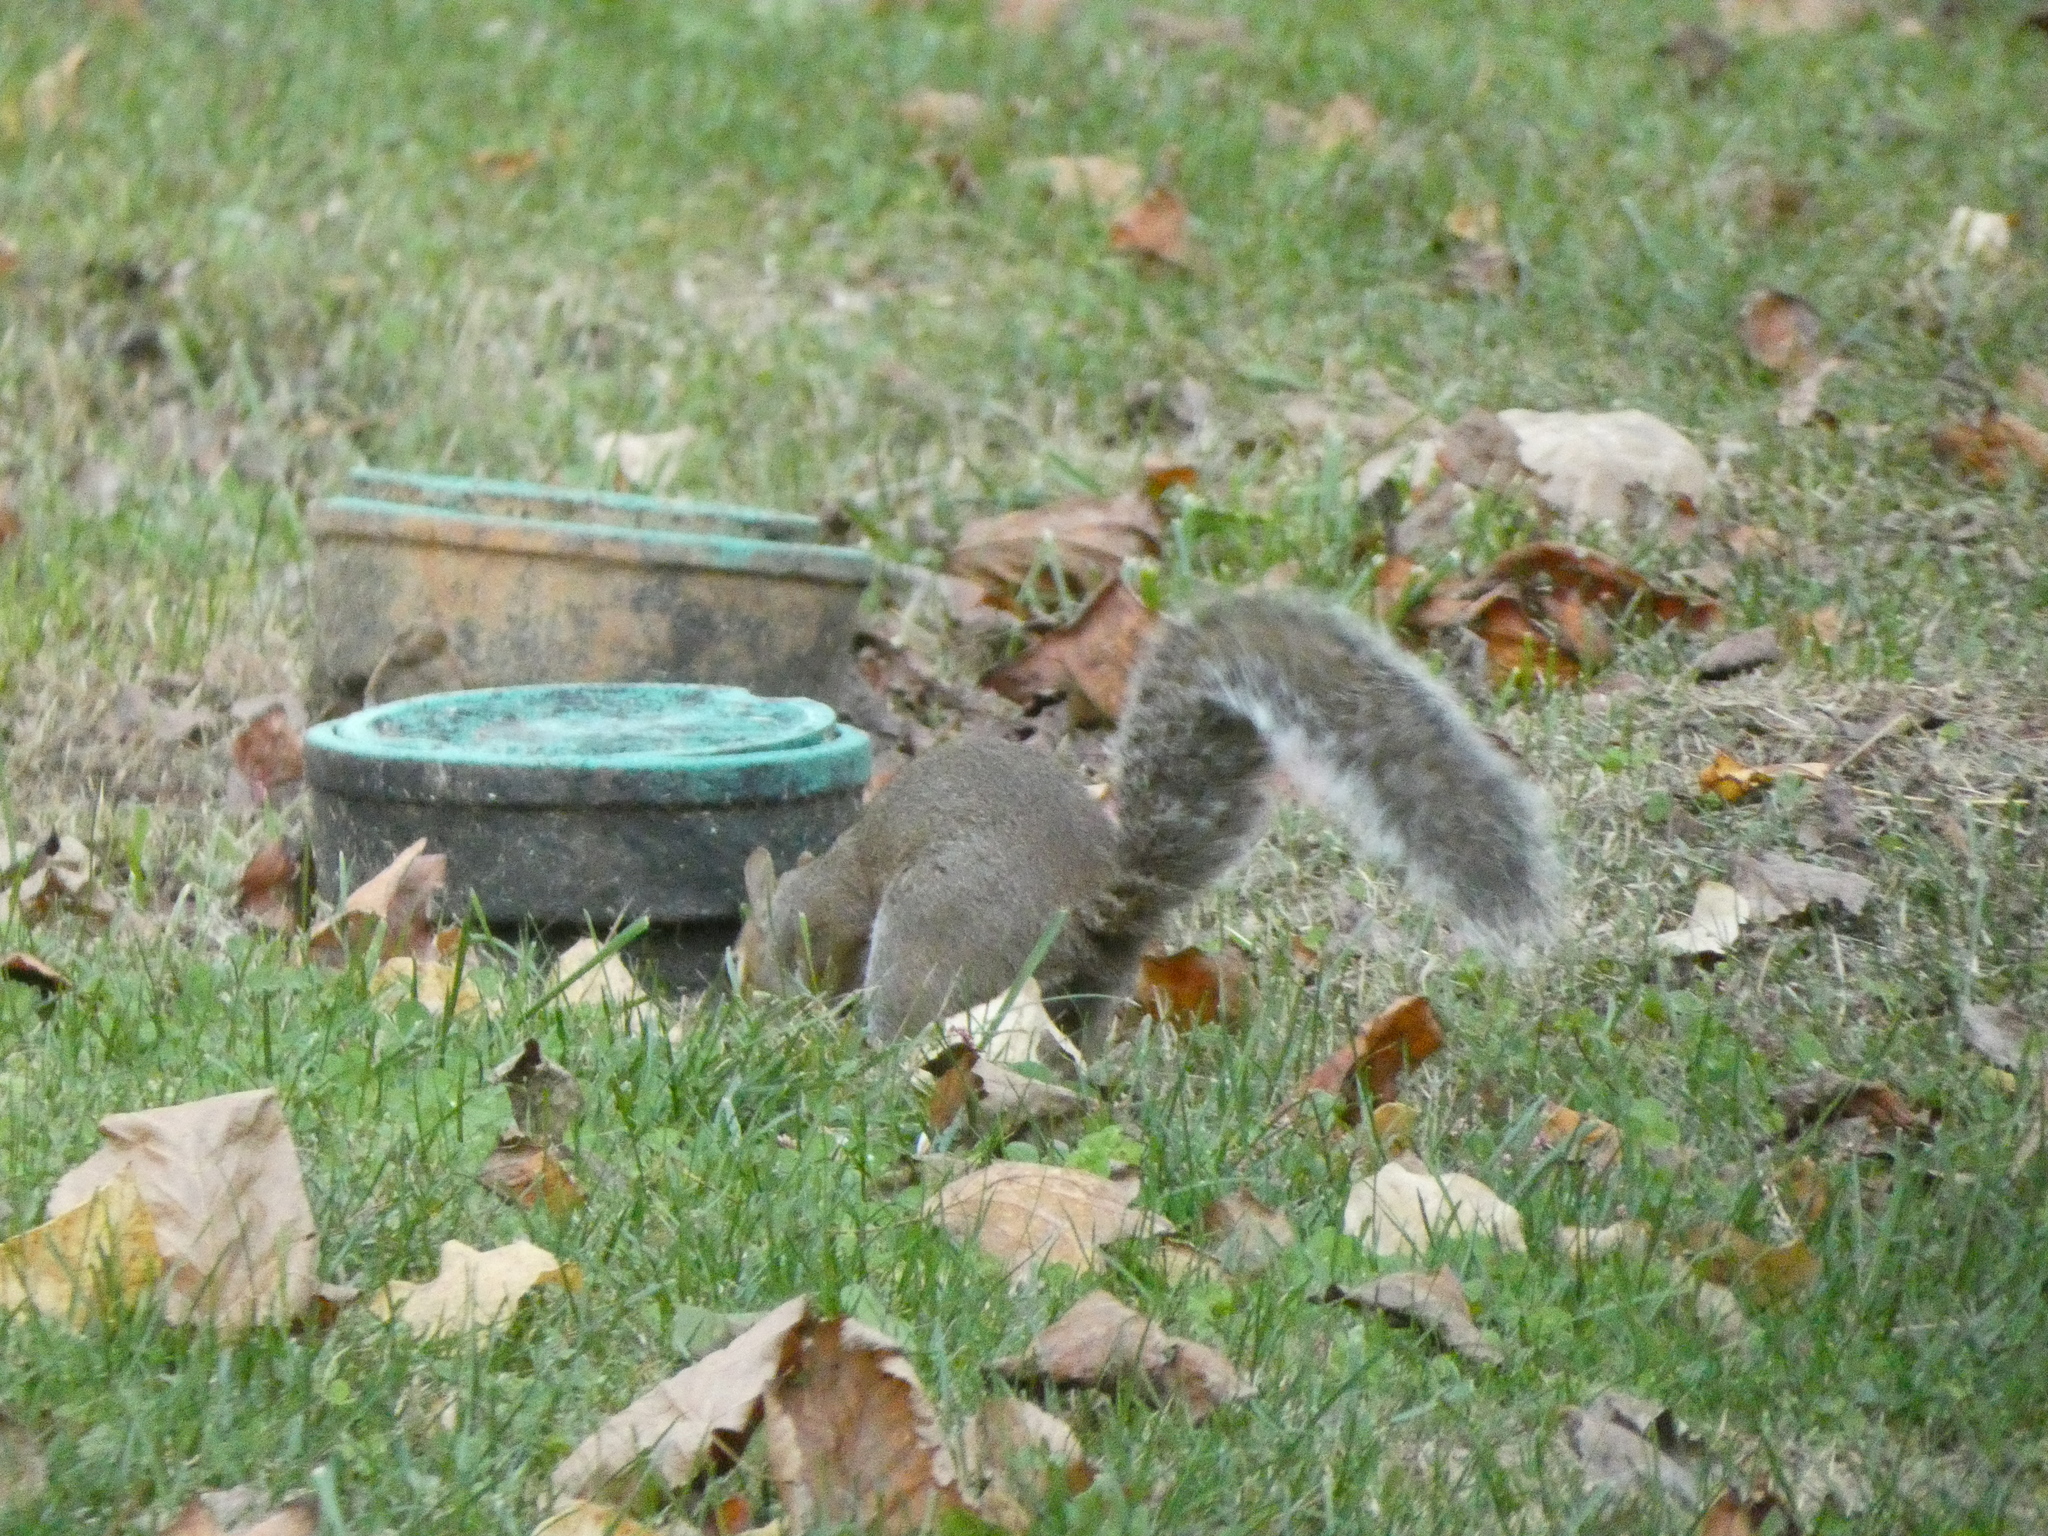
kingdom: Animalia
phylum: Chordata
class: Mammalia
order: Rodentia
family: Sciuridae
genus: Sciurus
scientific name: Sciurus carolinensis
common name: Eastern gray squirrel
